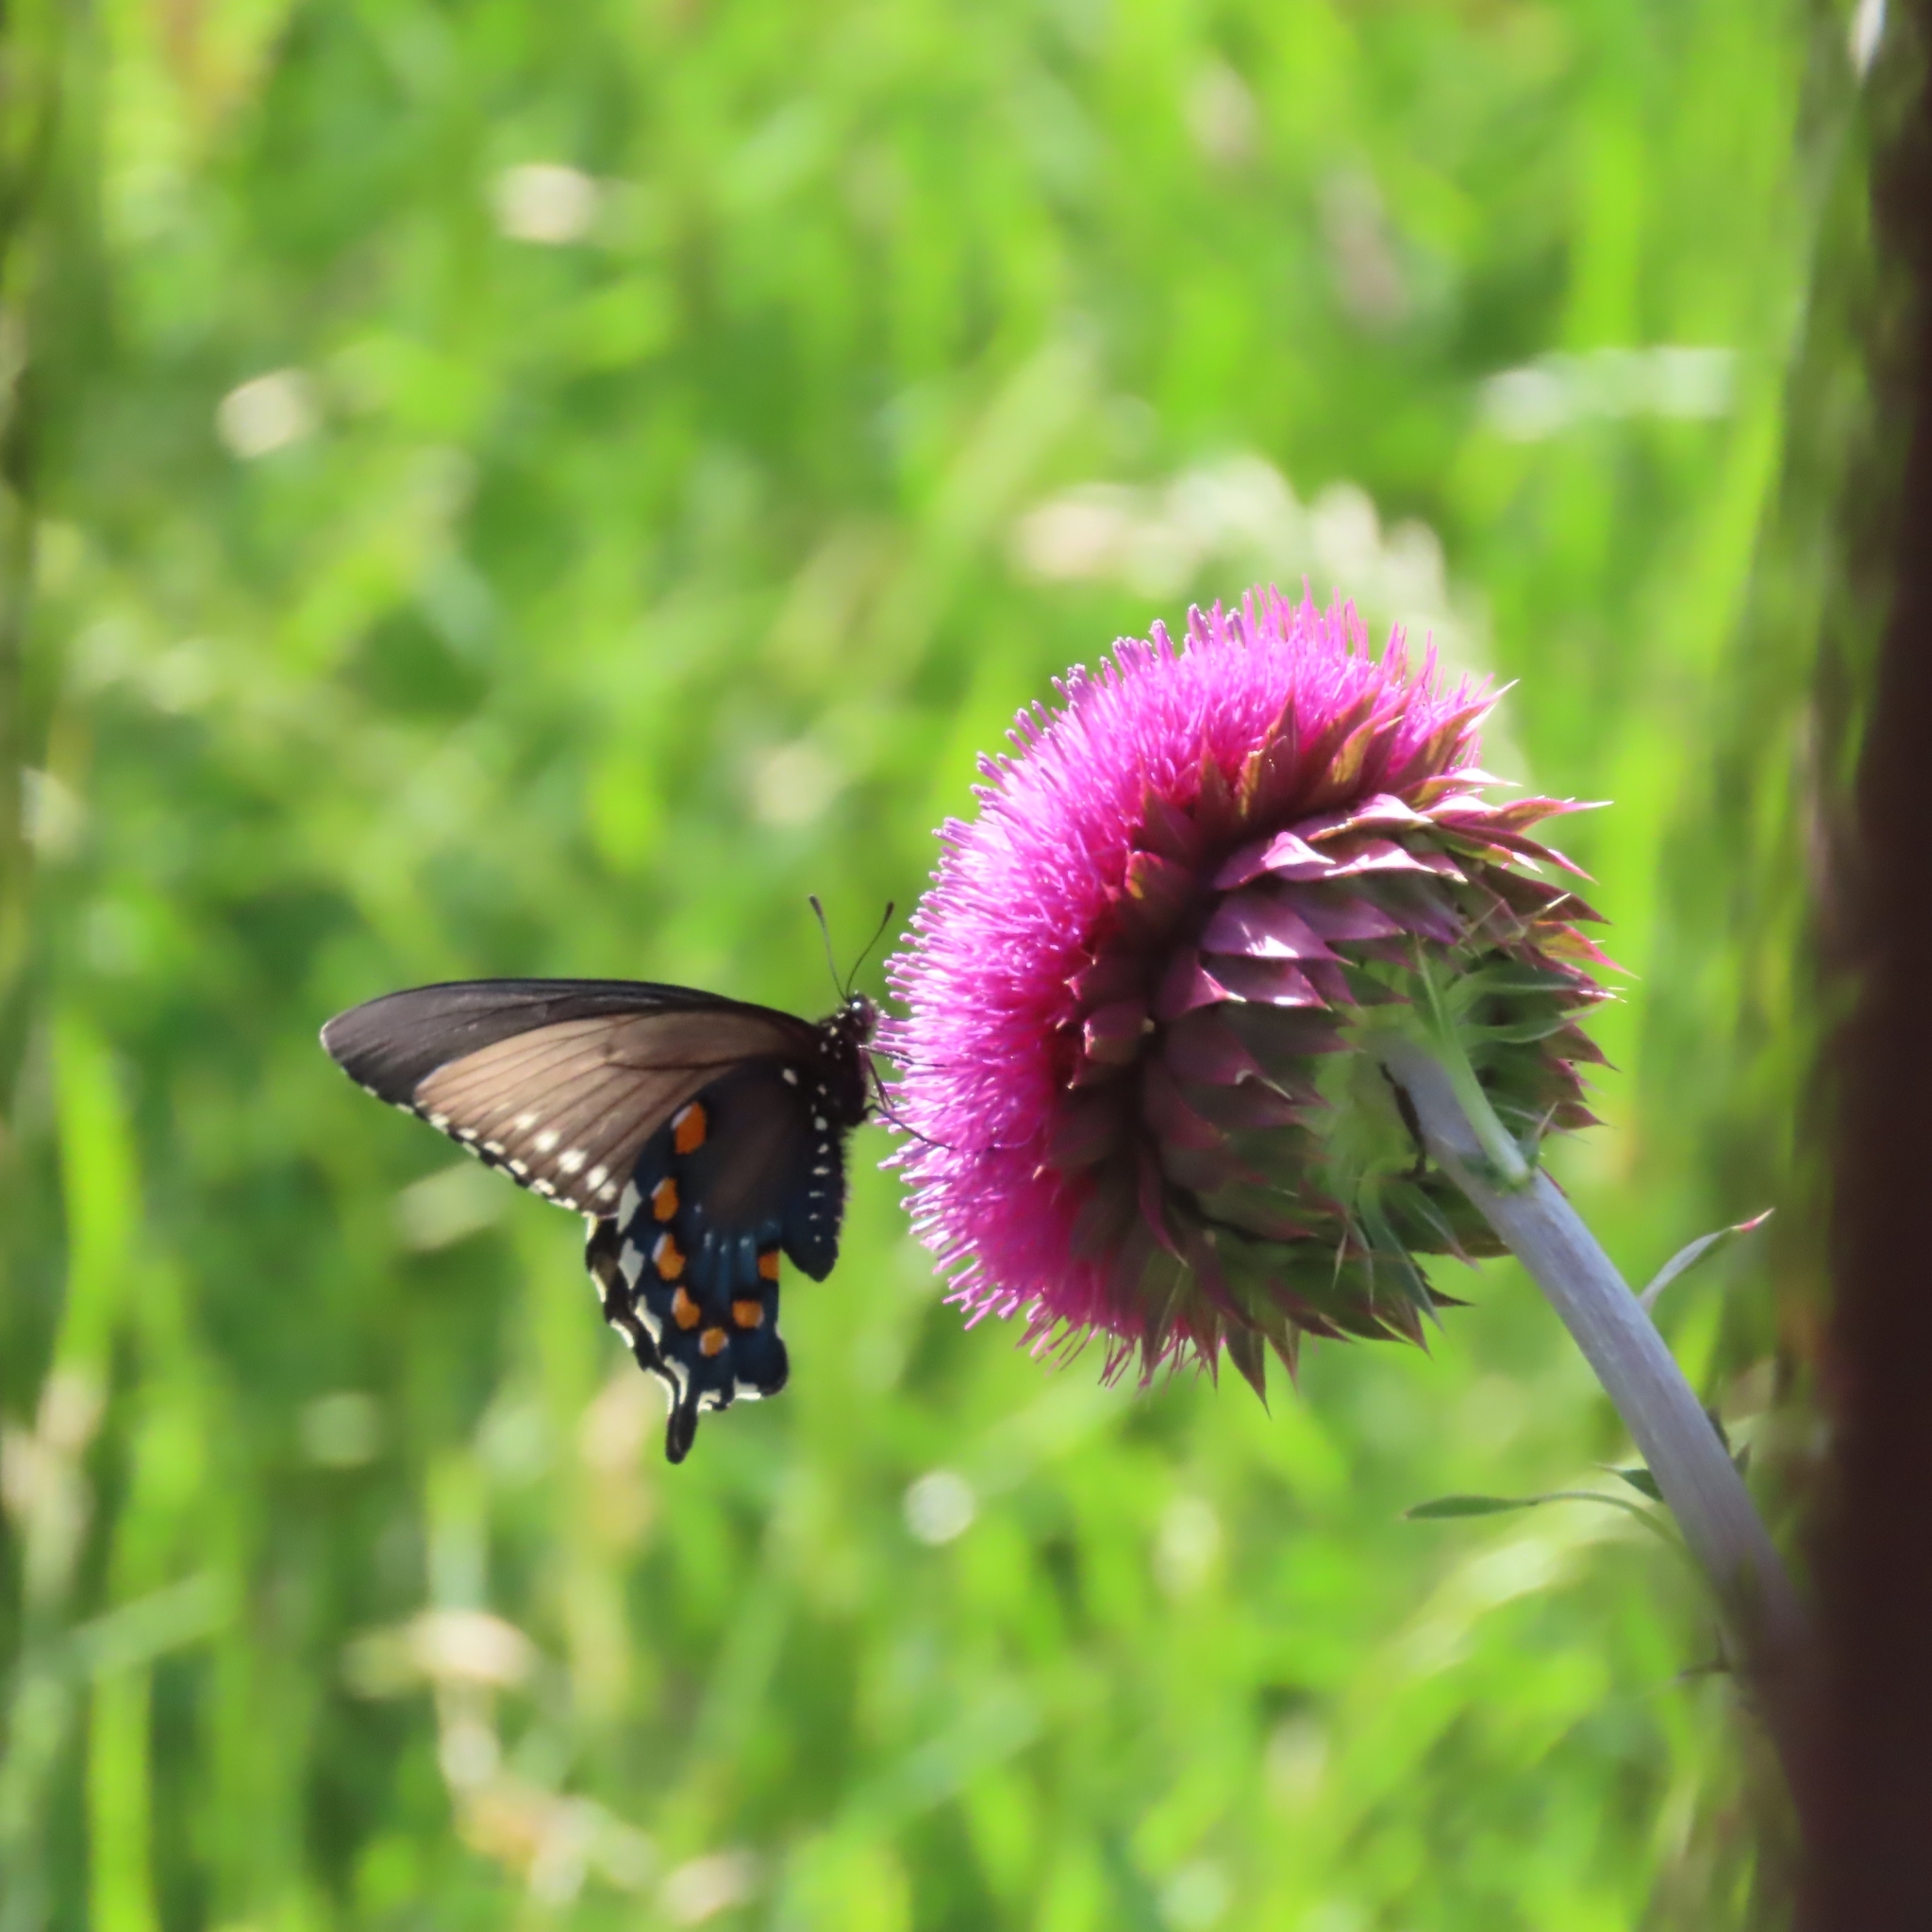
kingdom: Animalia
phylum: Arthropoda
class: Insecta
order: Lepidoptera
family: Papilionidae
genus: Battus
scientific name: Battus philenor
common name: Pipevine swallowtail
